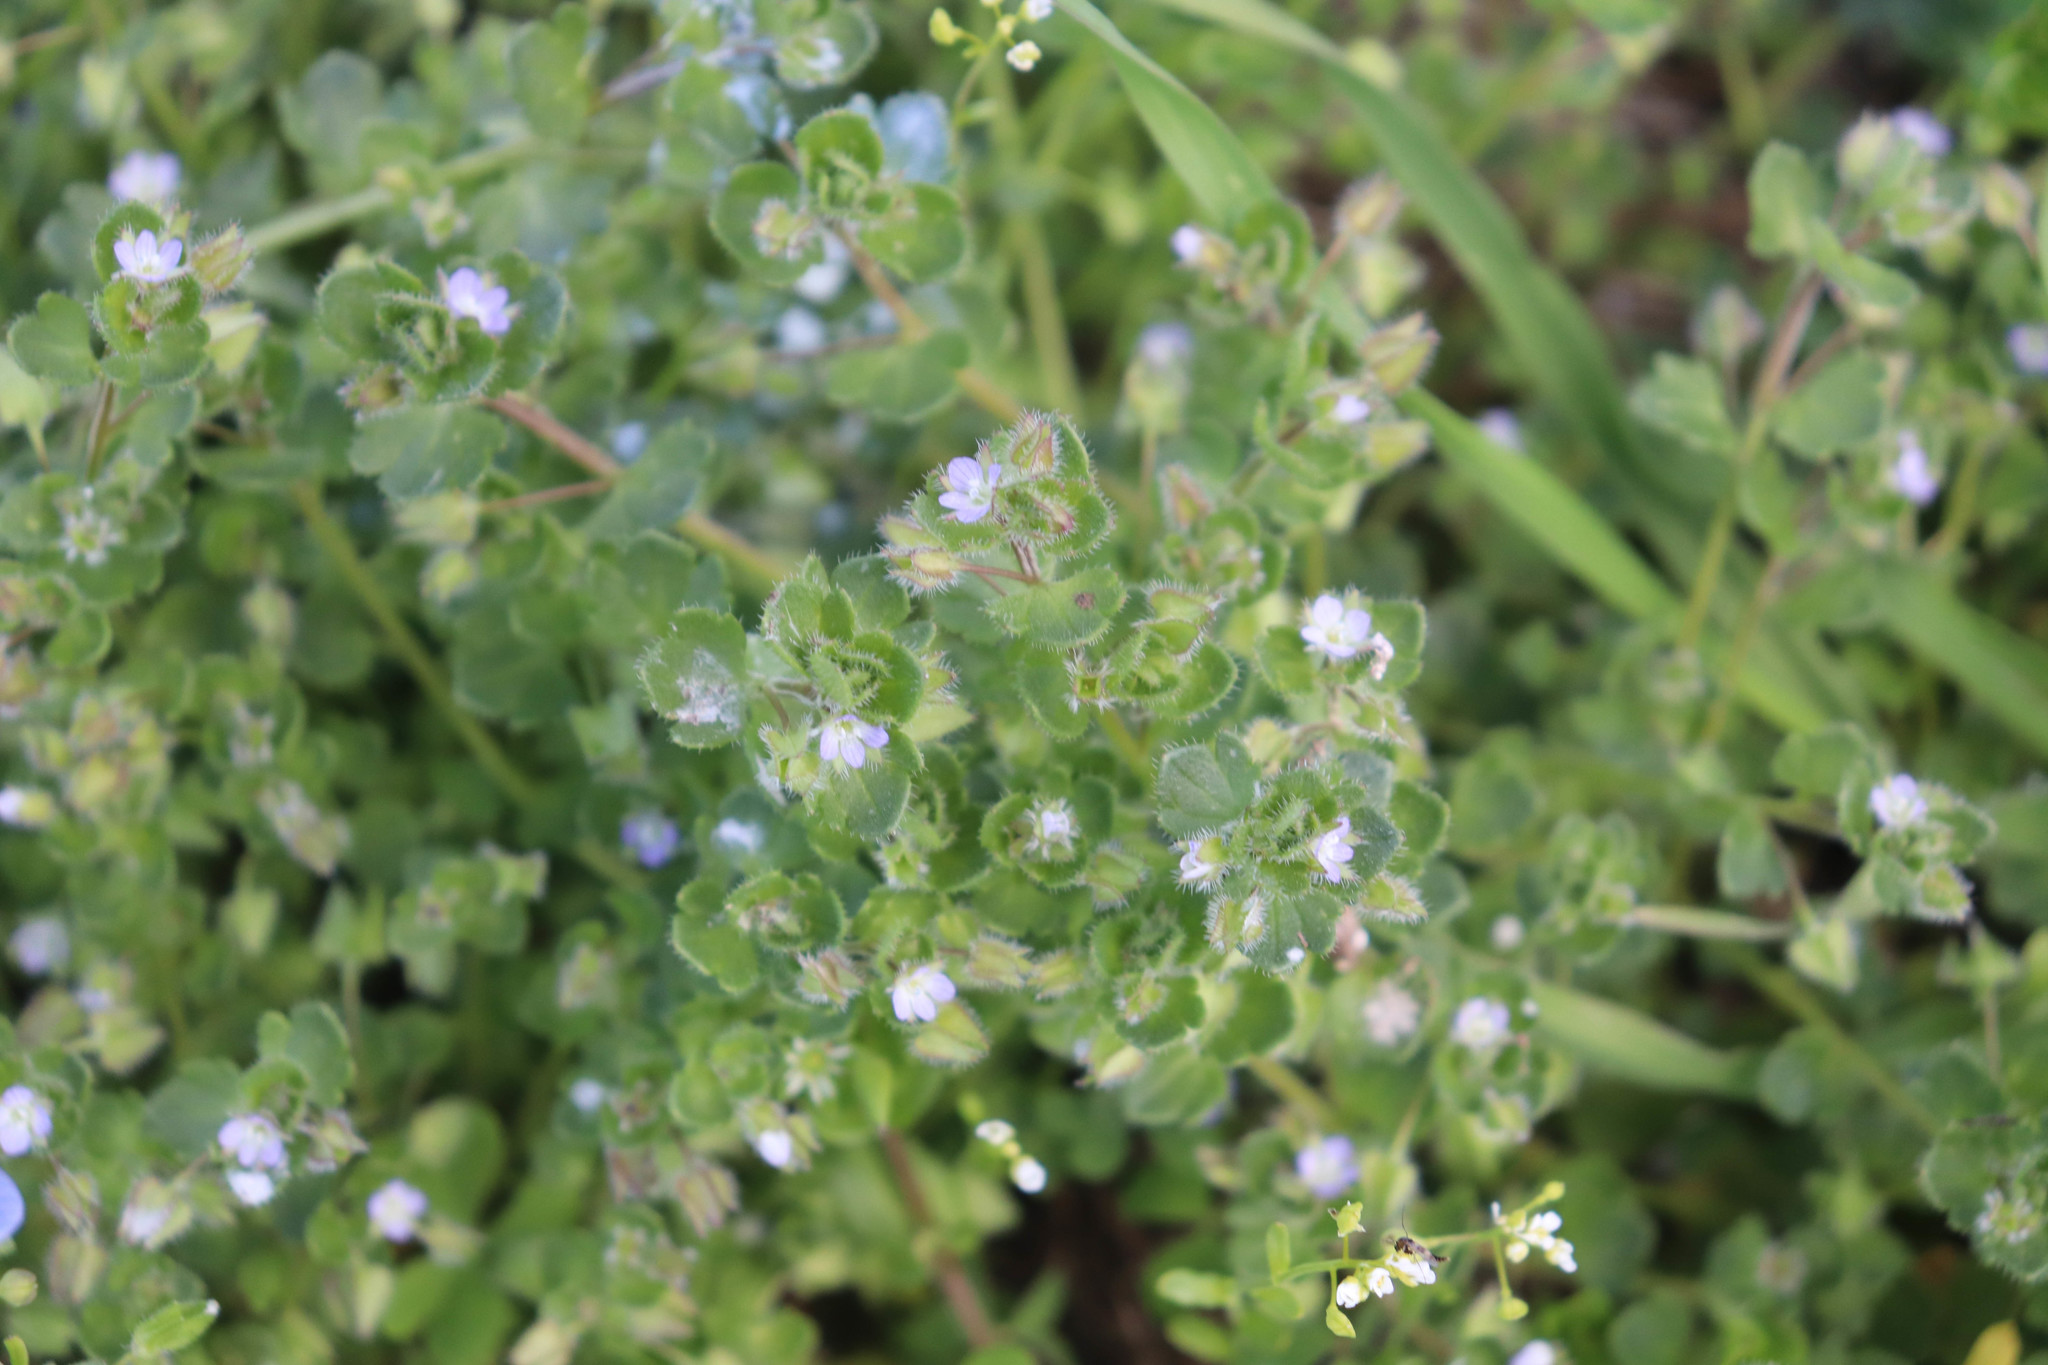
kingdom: Plantae
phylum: Tracheophyta
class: Magnoliopsida
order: Lamiales
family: Plantaginaceae
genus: Veronica
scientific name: Veronica hederifolia
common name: Ivy-leaved speedwell
